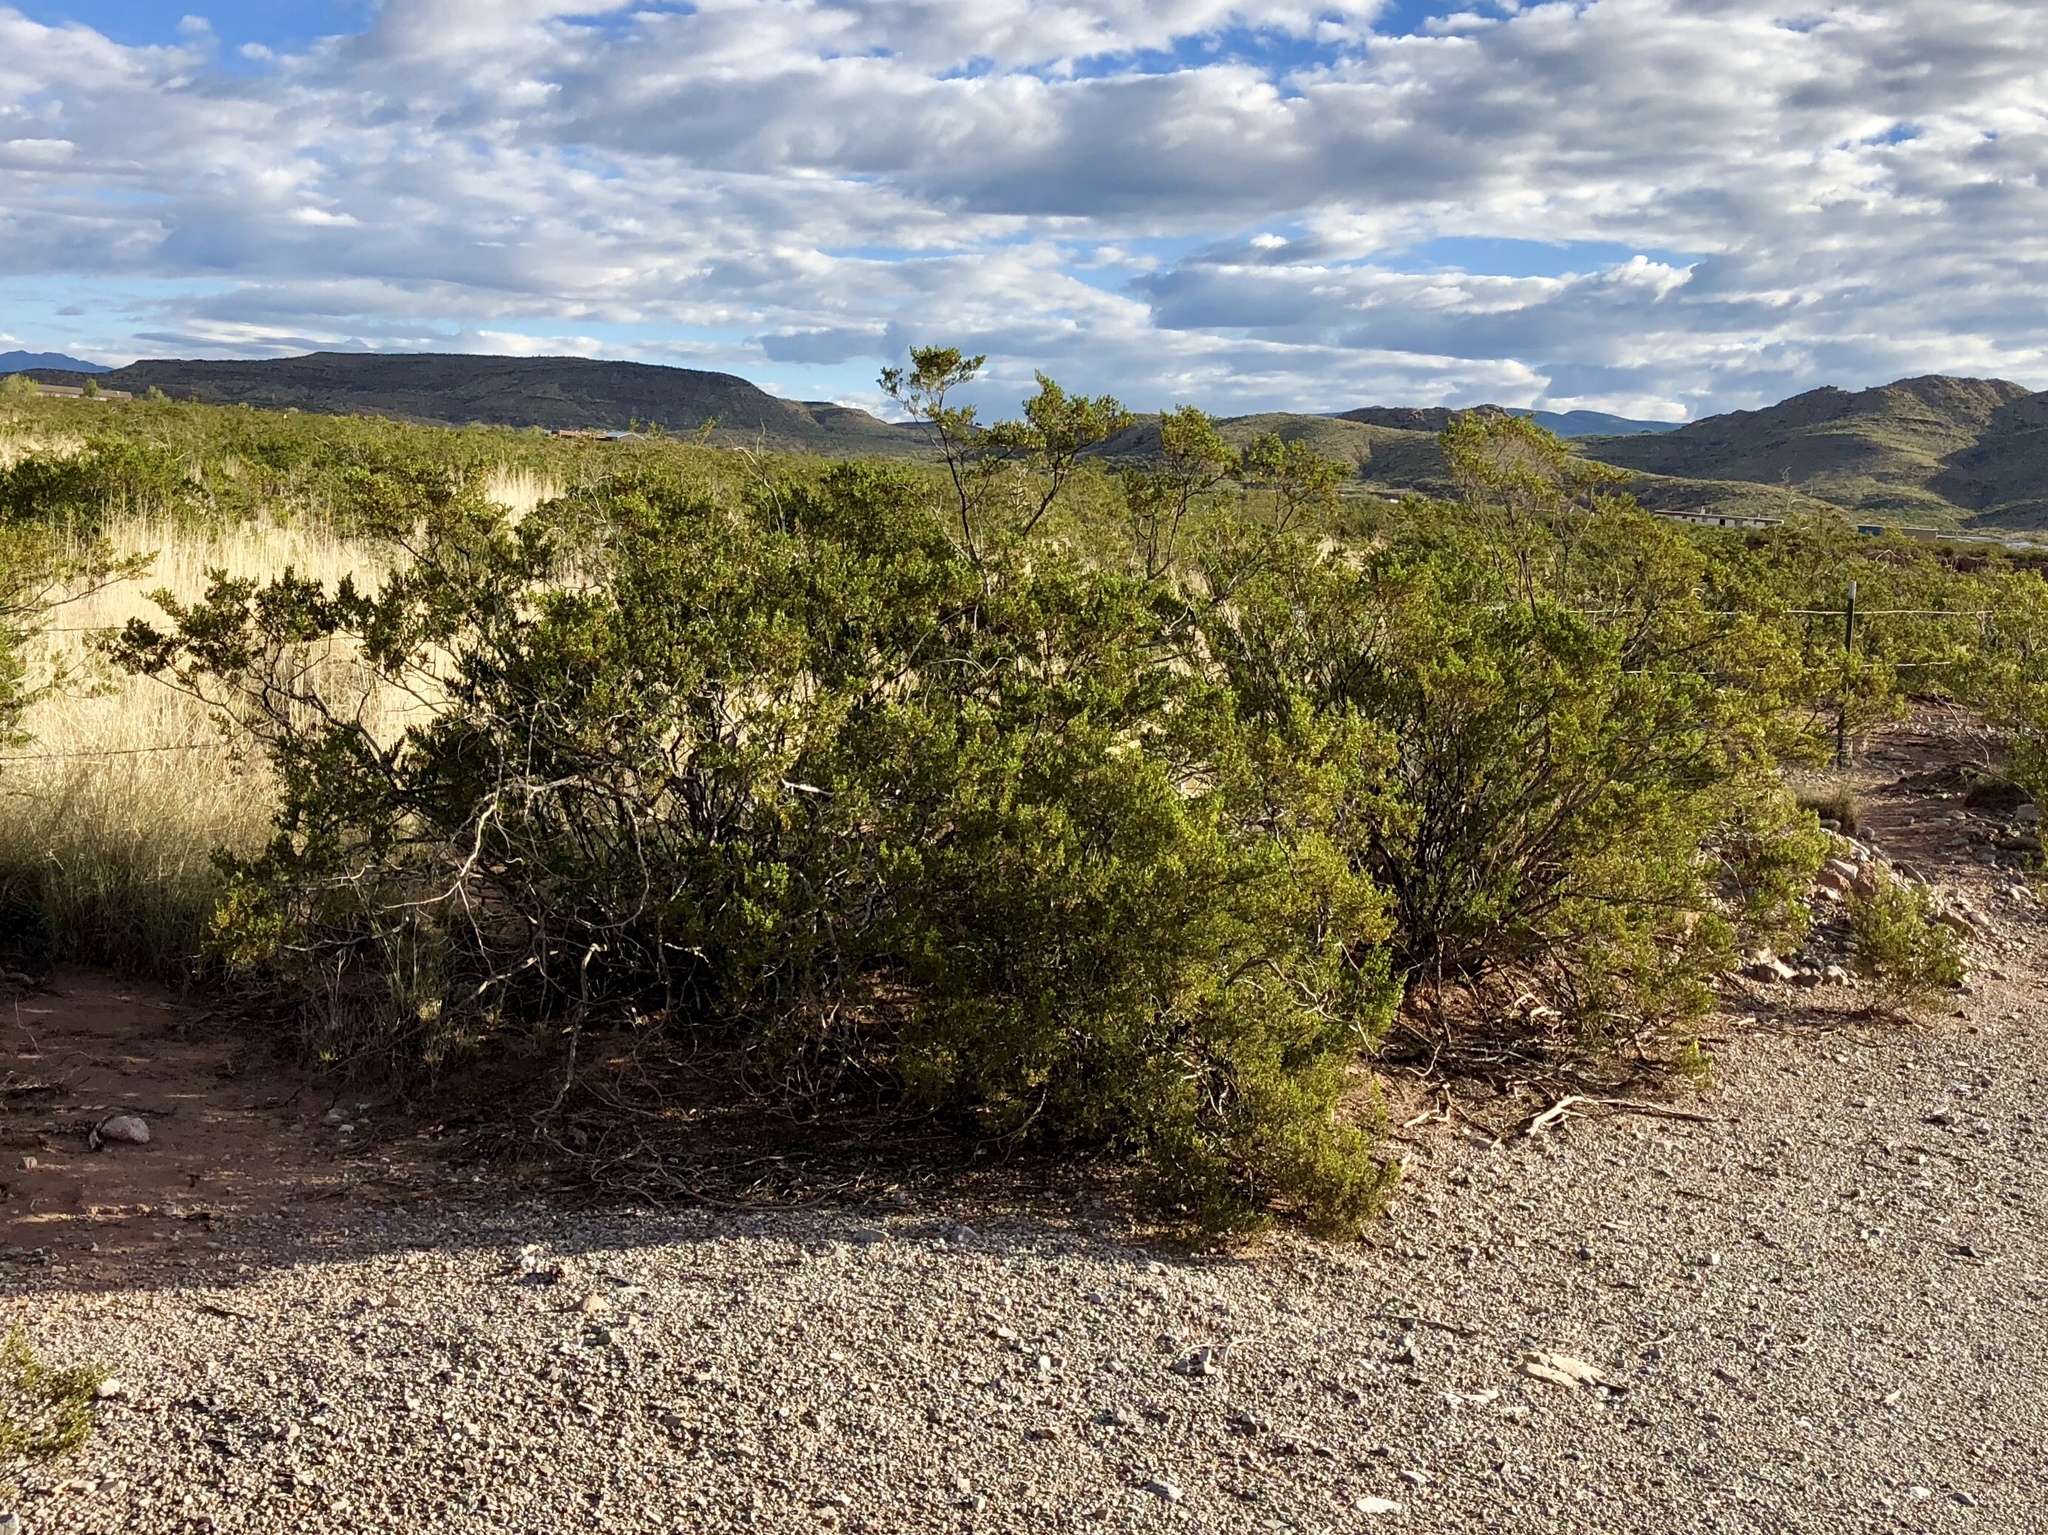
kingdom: Plantae
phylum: Tracheophyta
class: Magnoliopsida
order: Zygophyllales
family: Zygophyllaceae
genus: Larrea
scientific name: Larrea tridentata
